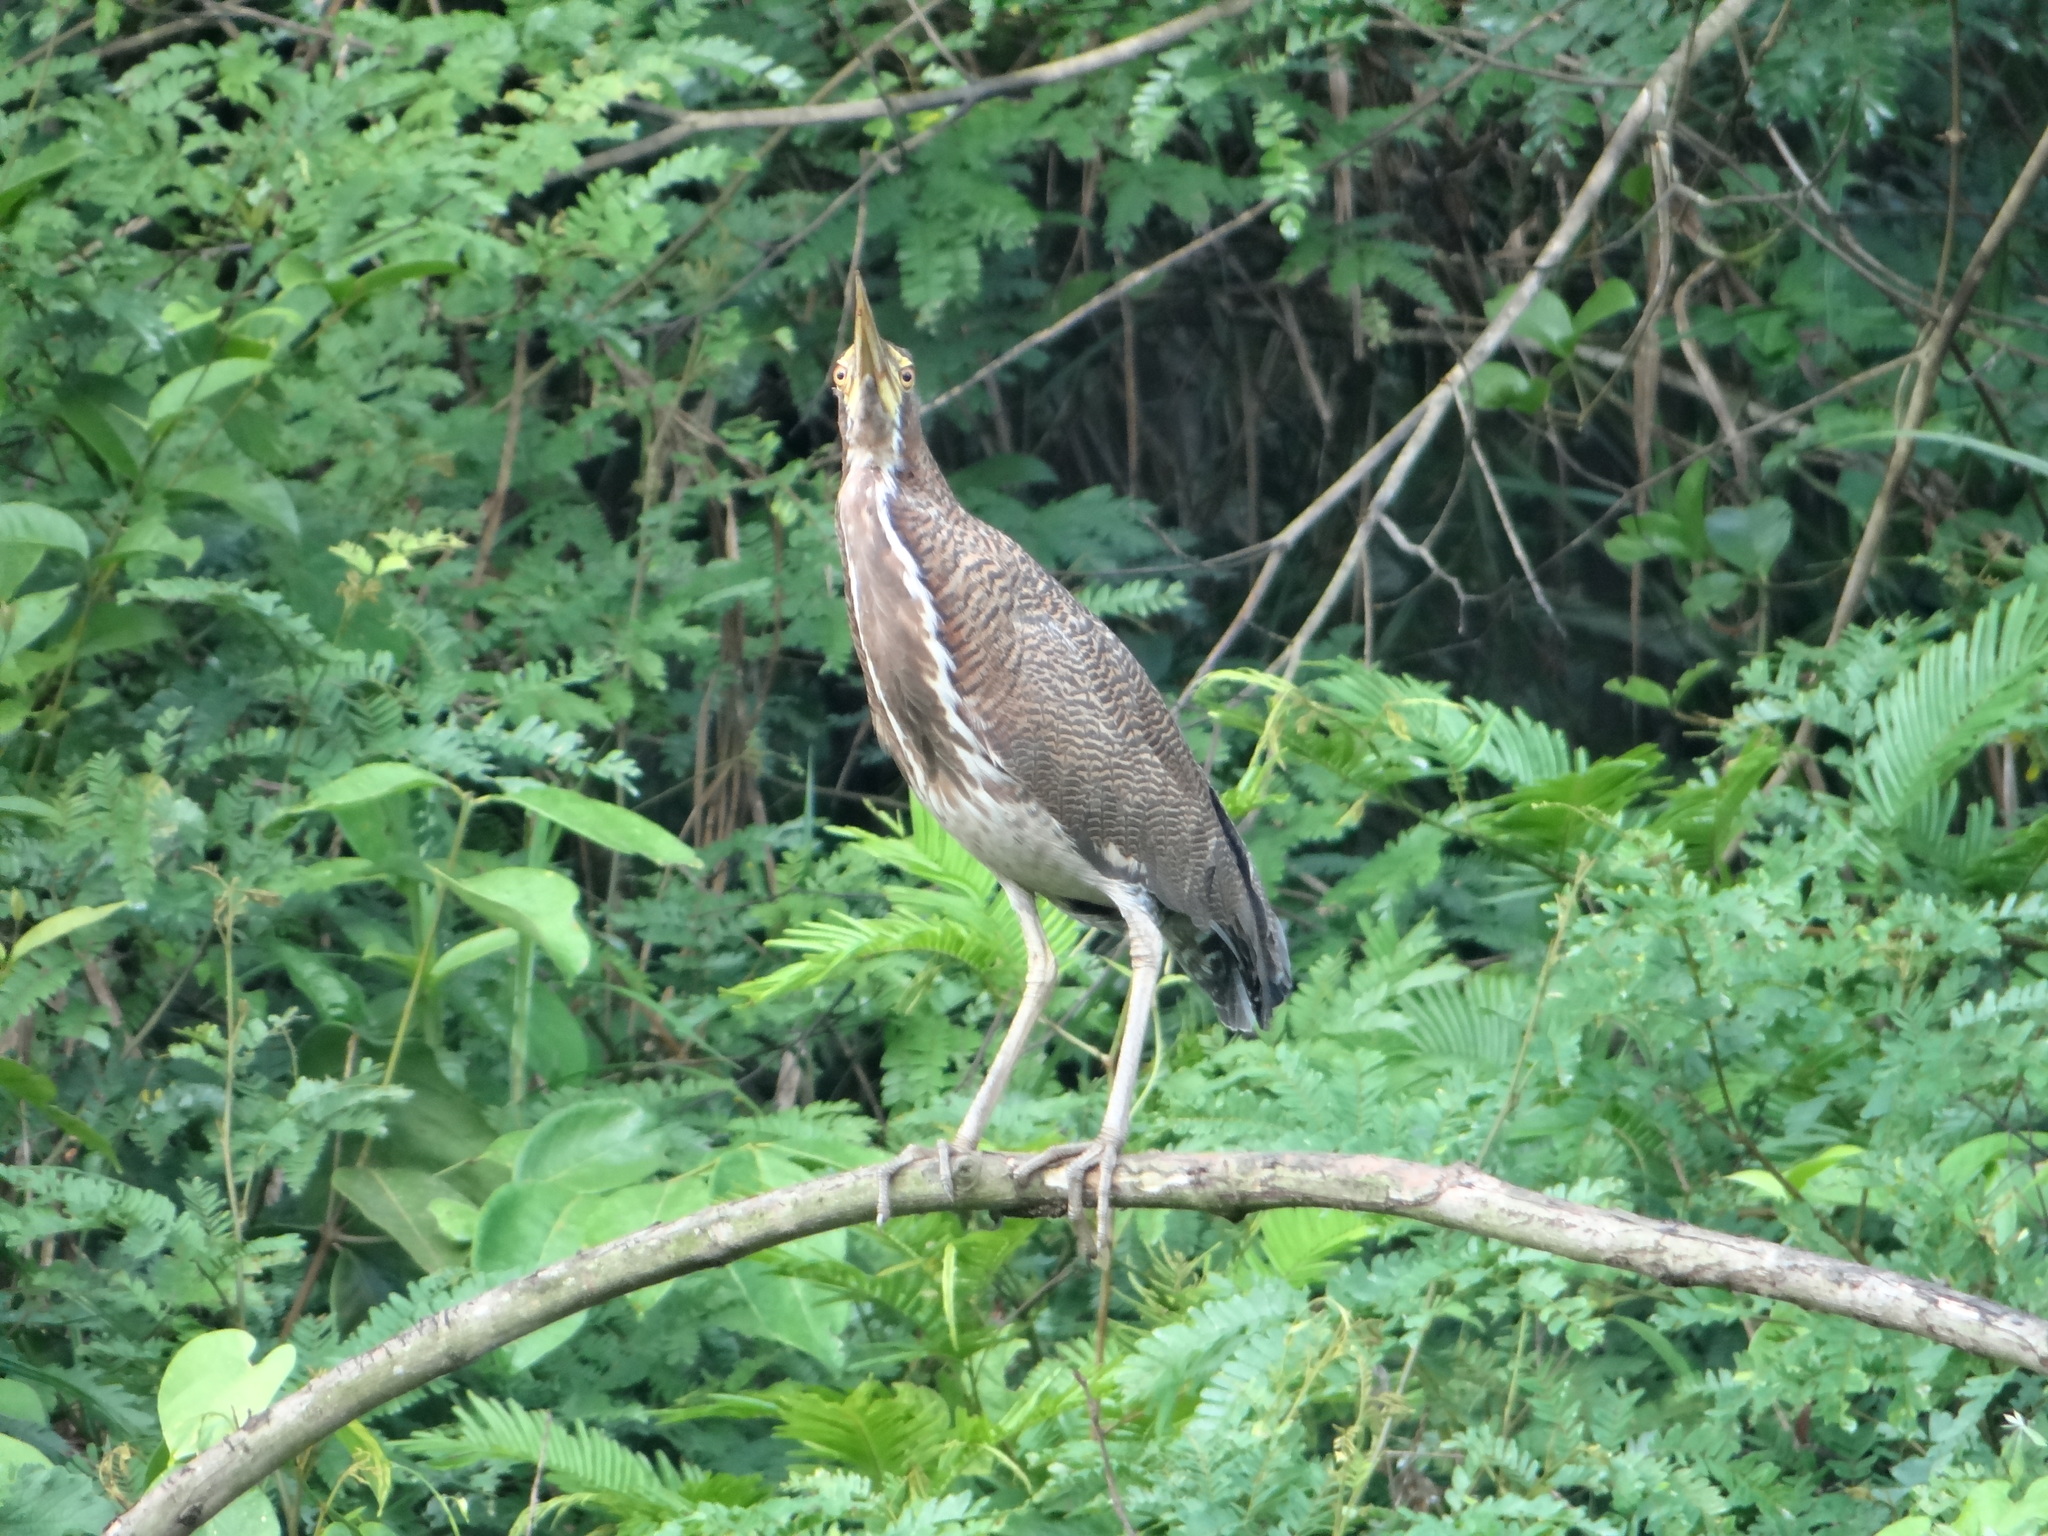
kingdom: Animalia
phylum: Chordata
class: Aves
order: Pelecaniformes
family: Ardeidae
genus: Tigrisoma
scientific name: Tigrisoma lineatum
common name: Rufescent tiger-heron
